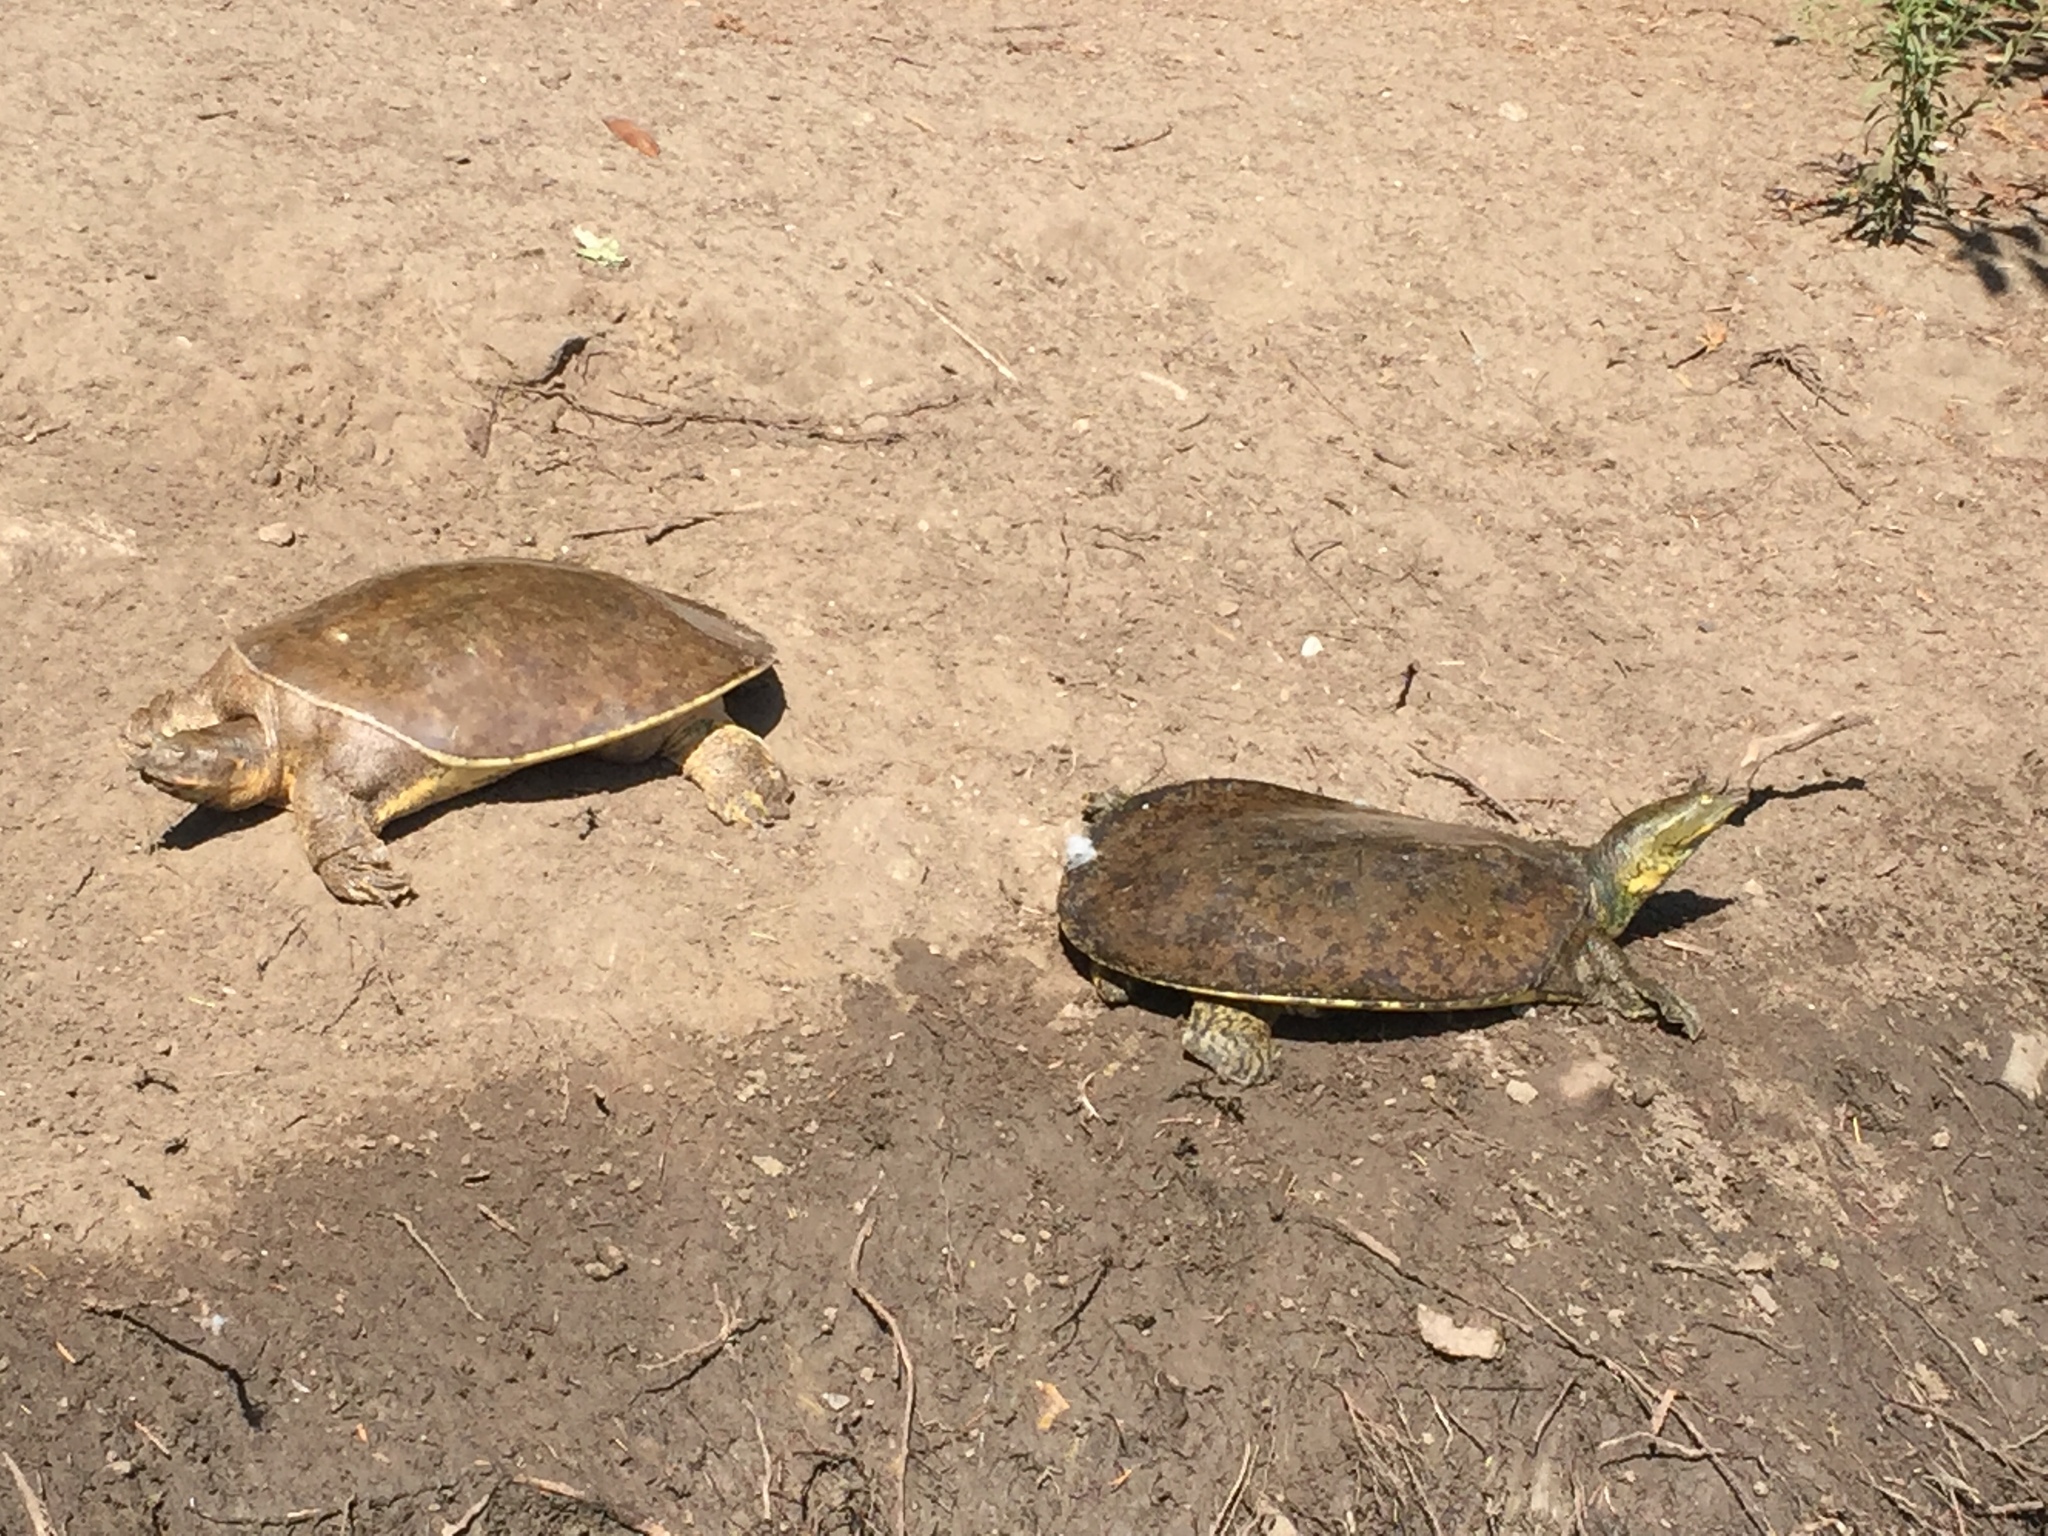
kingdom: Animalia
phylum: Chordata
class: Testudines
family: Trionychidae
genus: Apalone
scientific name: Apalone spinifera
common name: Spiny softshell turtle
